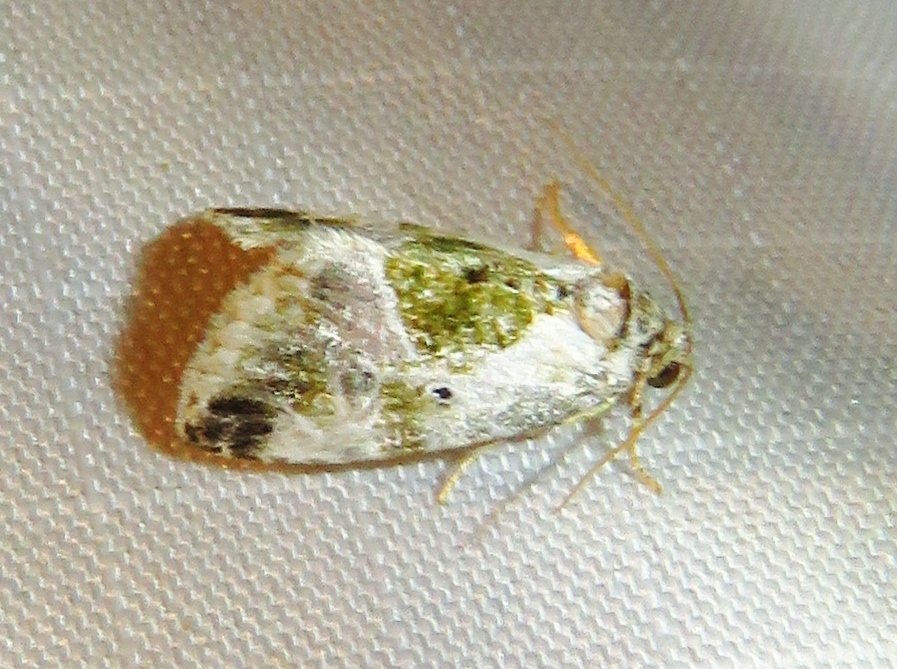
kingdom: Animalia
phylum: Arthropoda
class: Insecta
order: Lepidoptera
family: Noctuidae
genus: Maliattha
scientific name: Maliattha synochitis
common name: Black-dotted glyph
